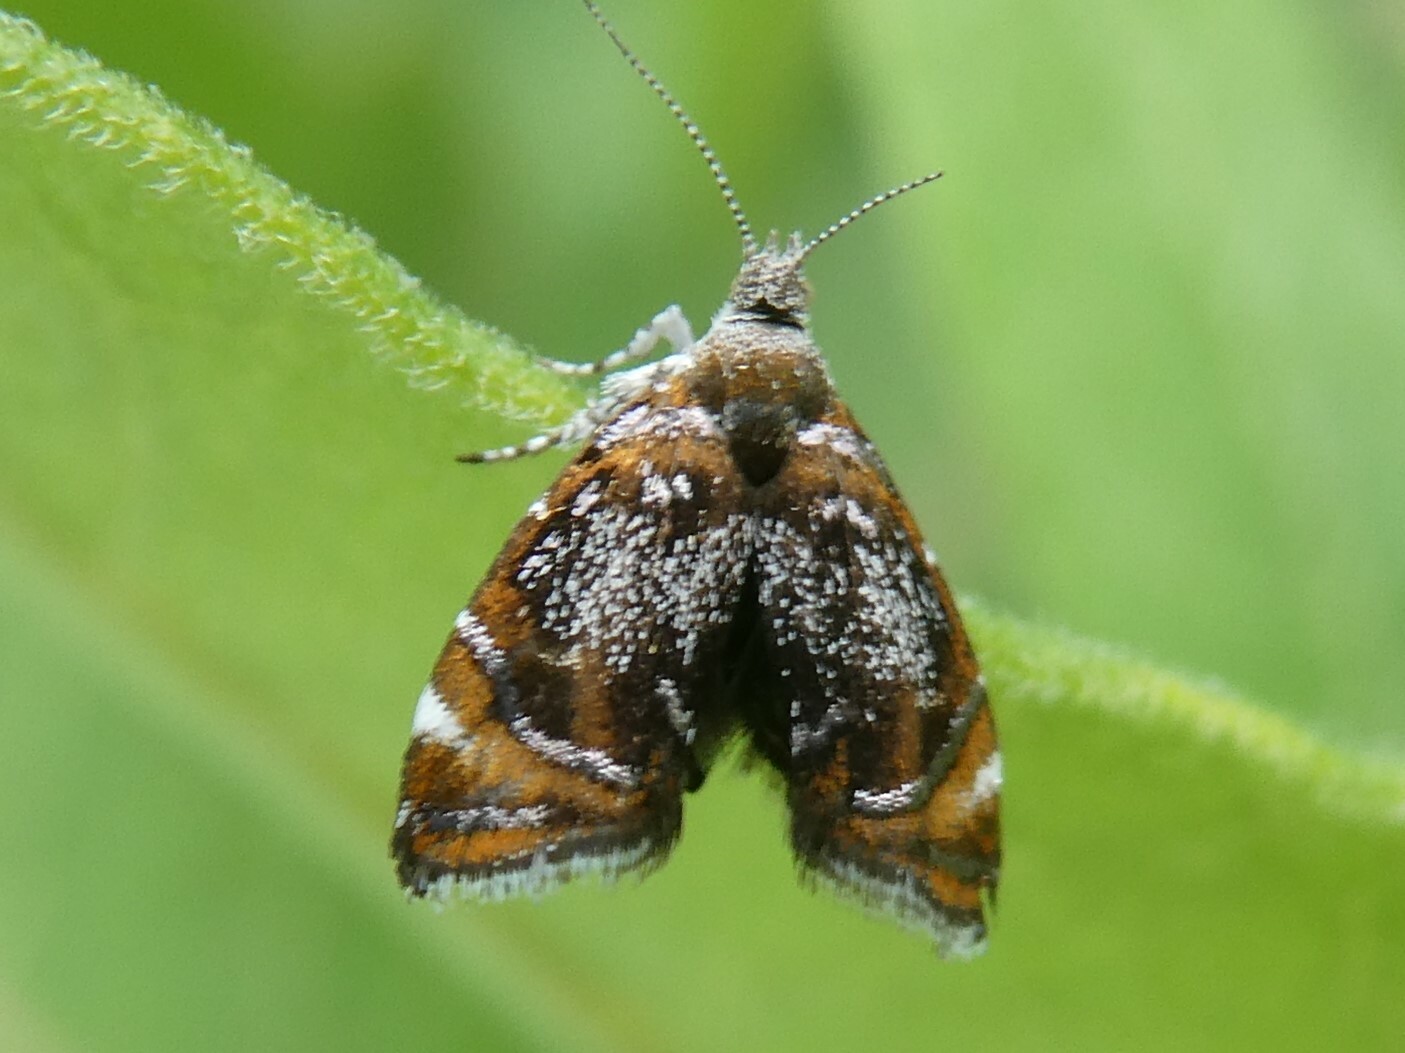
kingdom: Animalia
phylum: Arthropoda
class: Insecta
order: Lepidoptera
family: Choreutidae
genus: Prochoreutis
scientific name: Prochoreutis inflatella
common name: Skullcap skeletonizer moth
